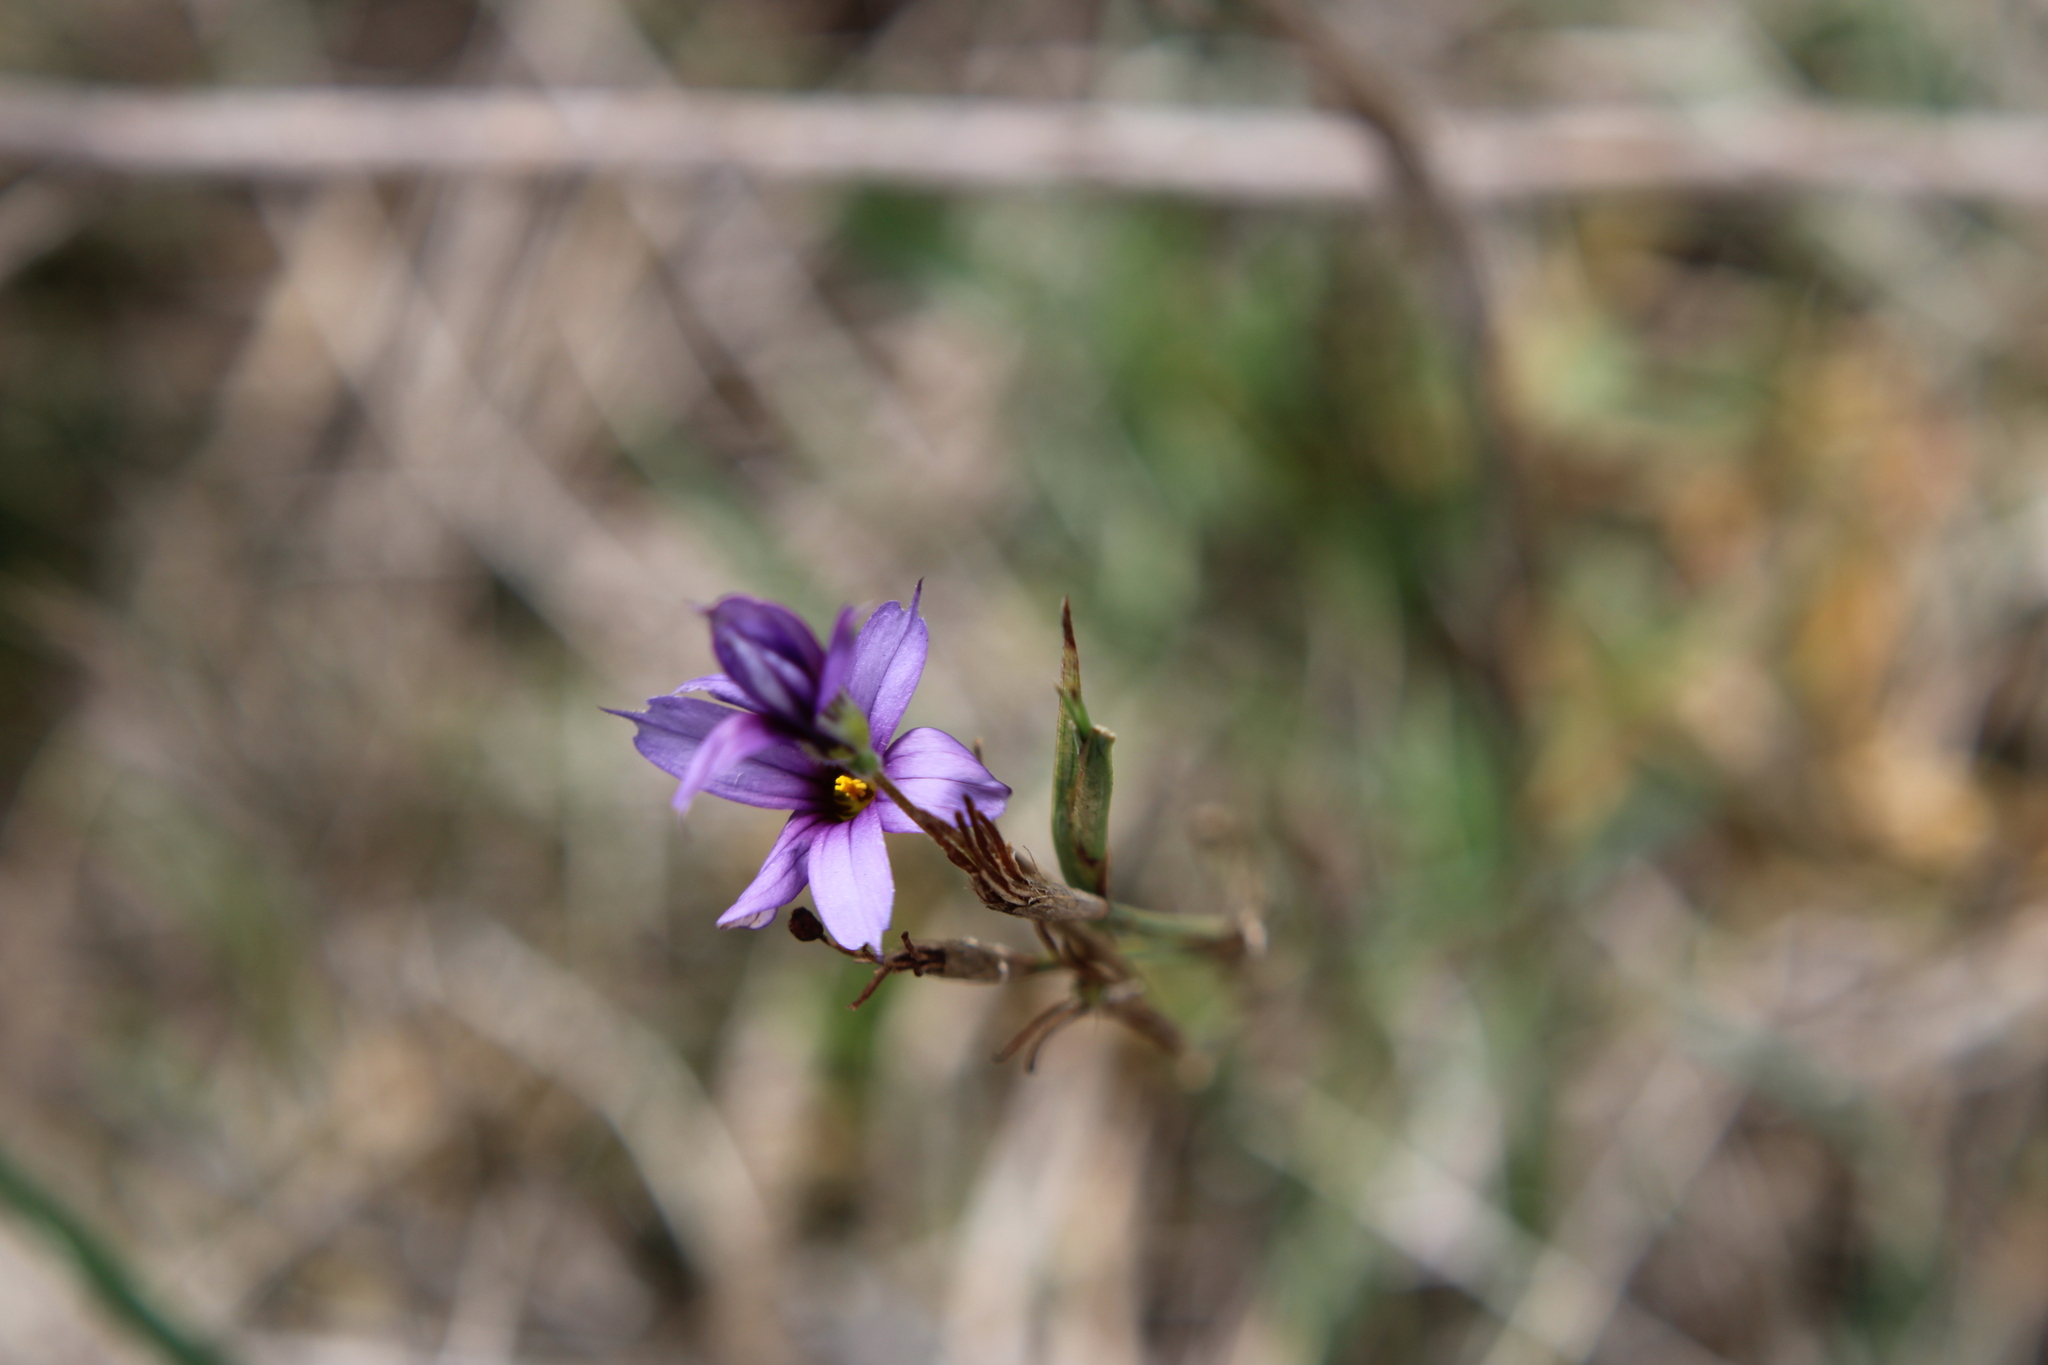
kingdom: Plantae
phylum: Tracheophyta
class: Liliopsida
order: Asparagales
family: Iridaceae
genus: Sisyrinchium
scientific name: Sisyrinchium platense
